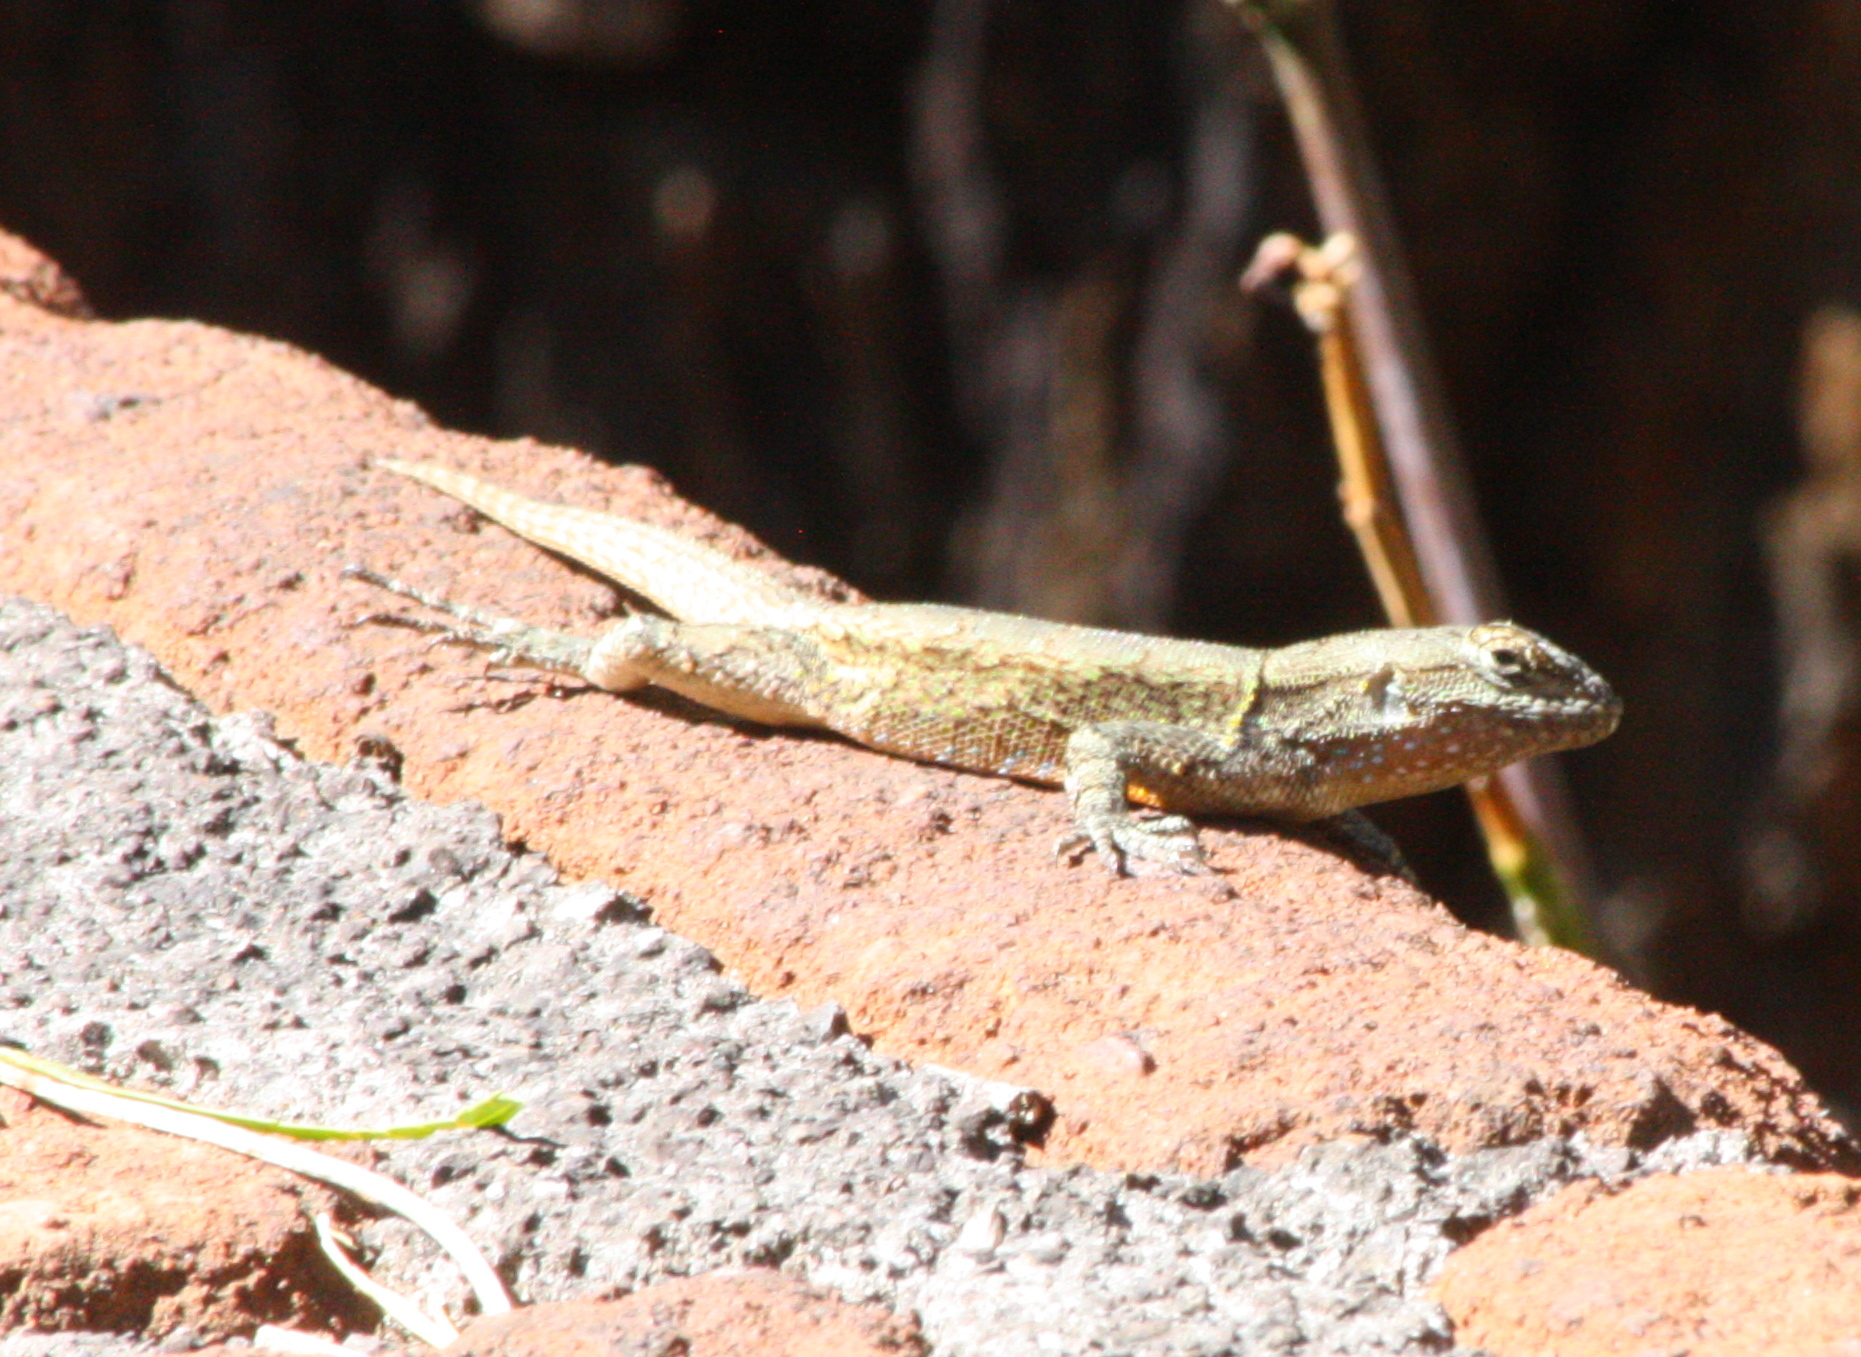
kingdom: Animalia
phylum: Chordata
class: Squamata
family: Phrynosomatidae
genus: Sceloporus
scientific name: Sceloporus grammicus
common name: Mesquite lizard
